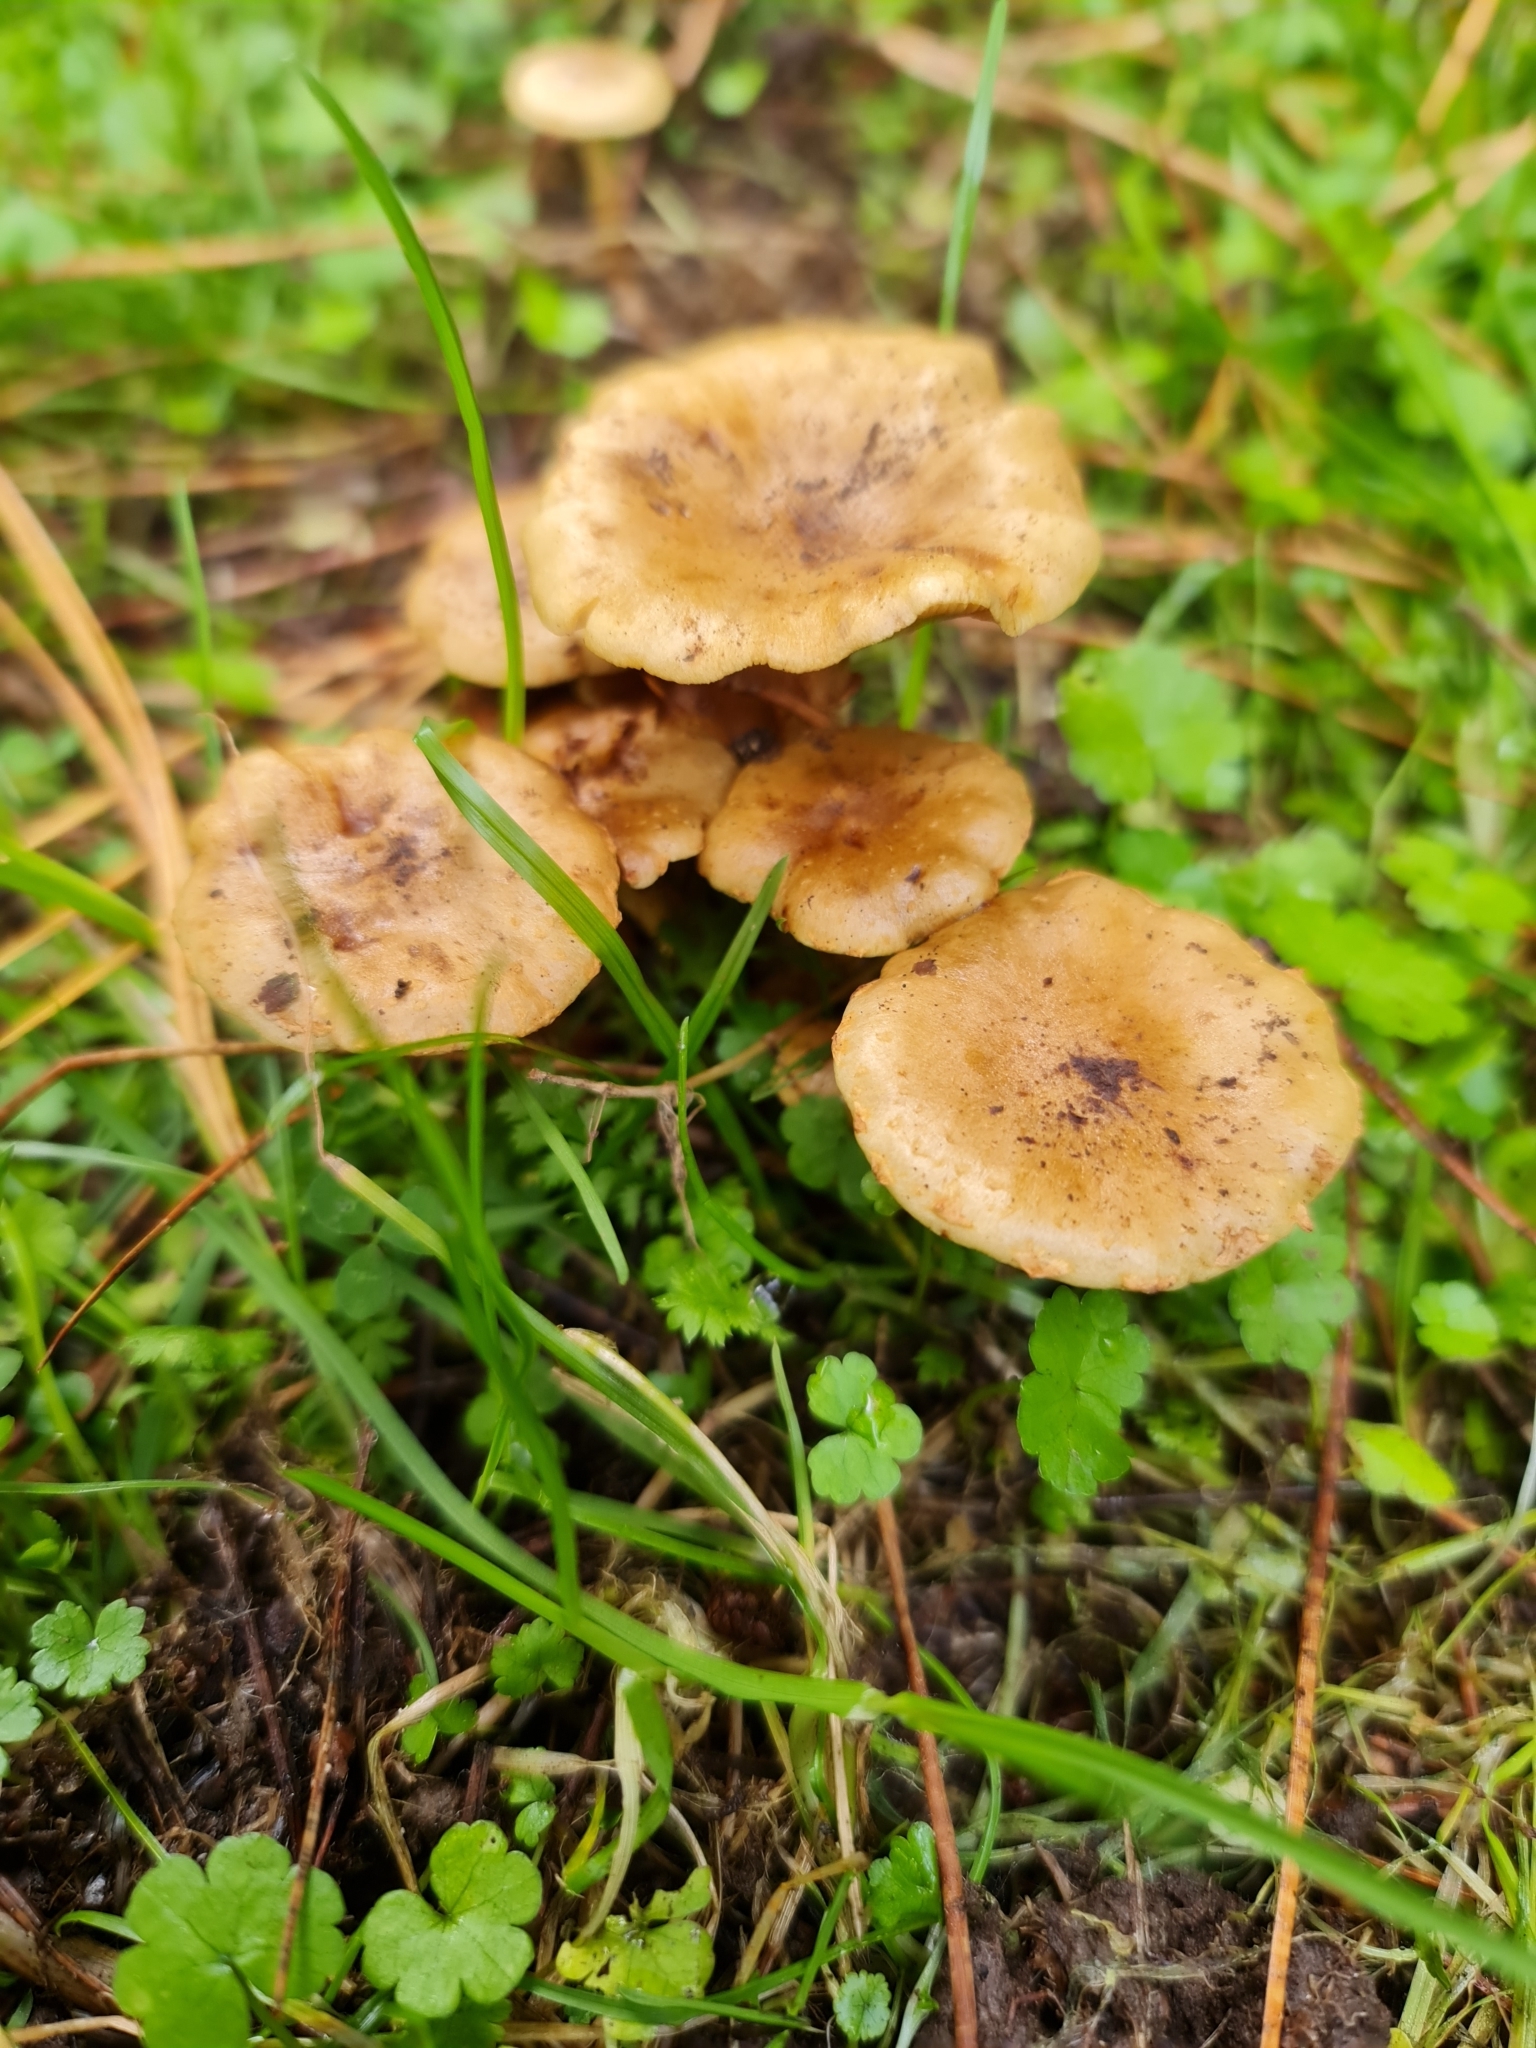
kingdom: Fungi
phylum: Basidiomycota
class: Agaricomycetes
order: Agaricales
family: Strophariaceae
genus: Pholiota
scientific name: Pholiota subflammans
